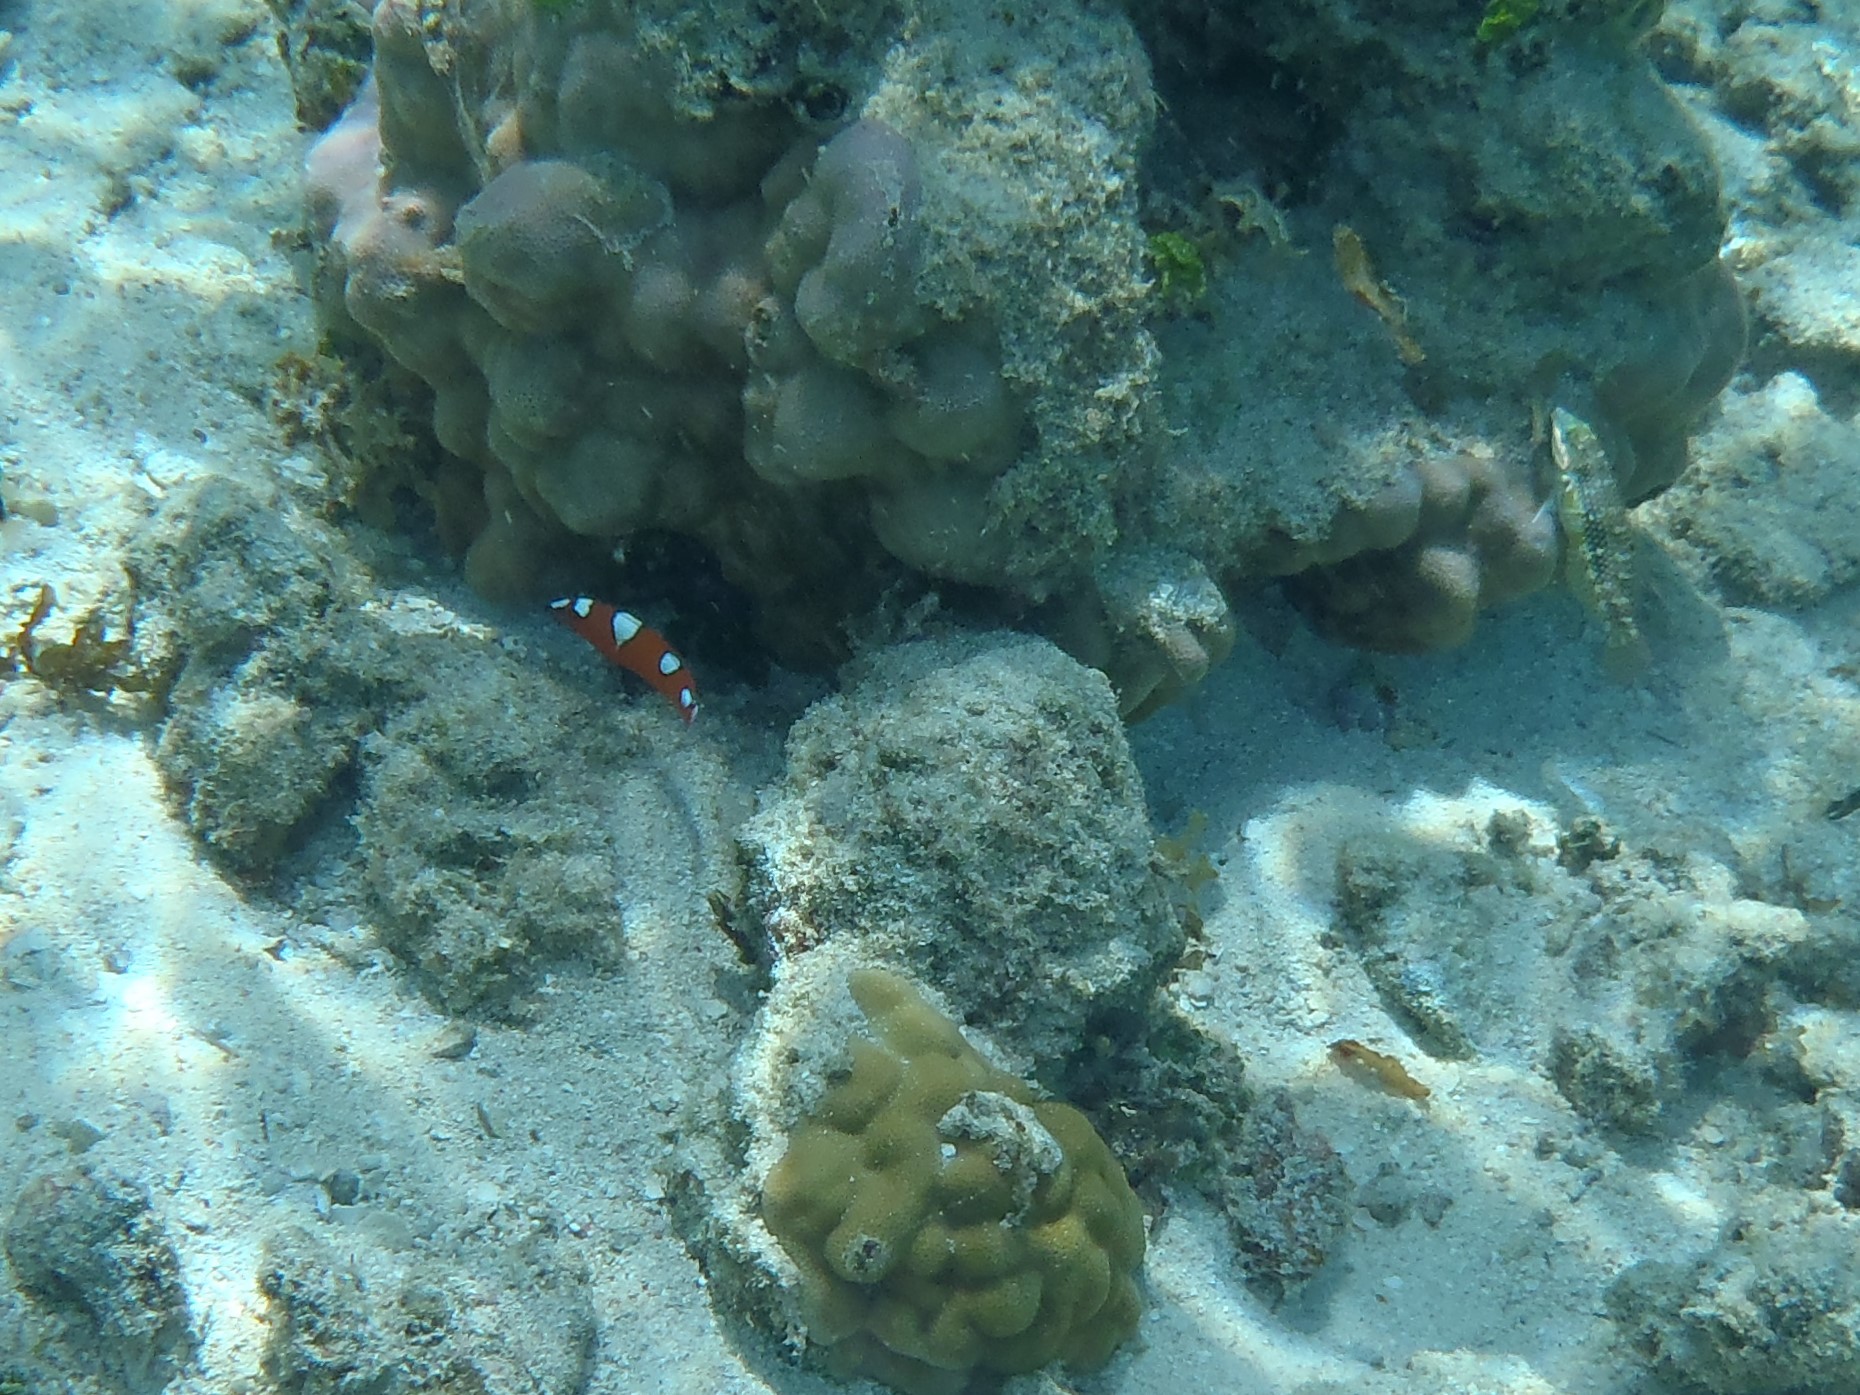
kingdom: Animalia
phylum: Chordata
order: Perciformes
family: Labridae
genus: Coris
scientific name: Coris gaimard
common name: Yellowtail coris
